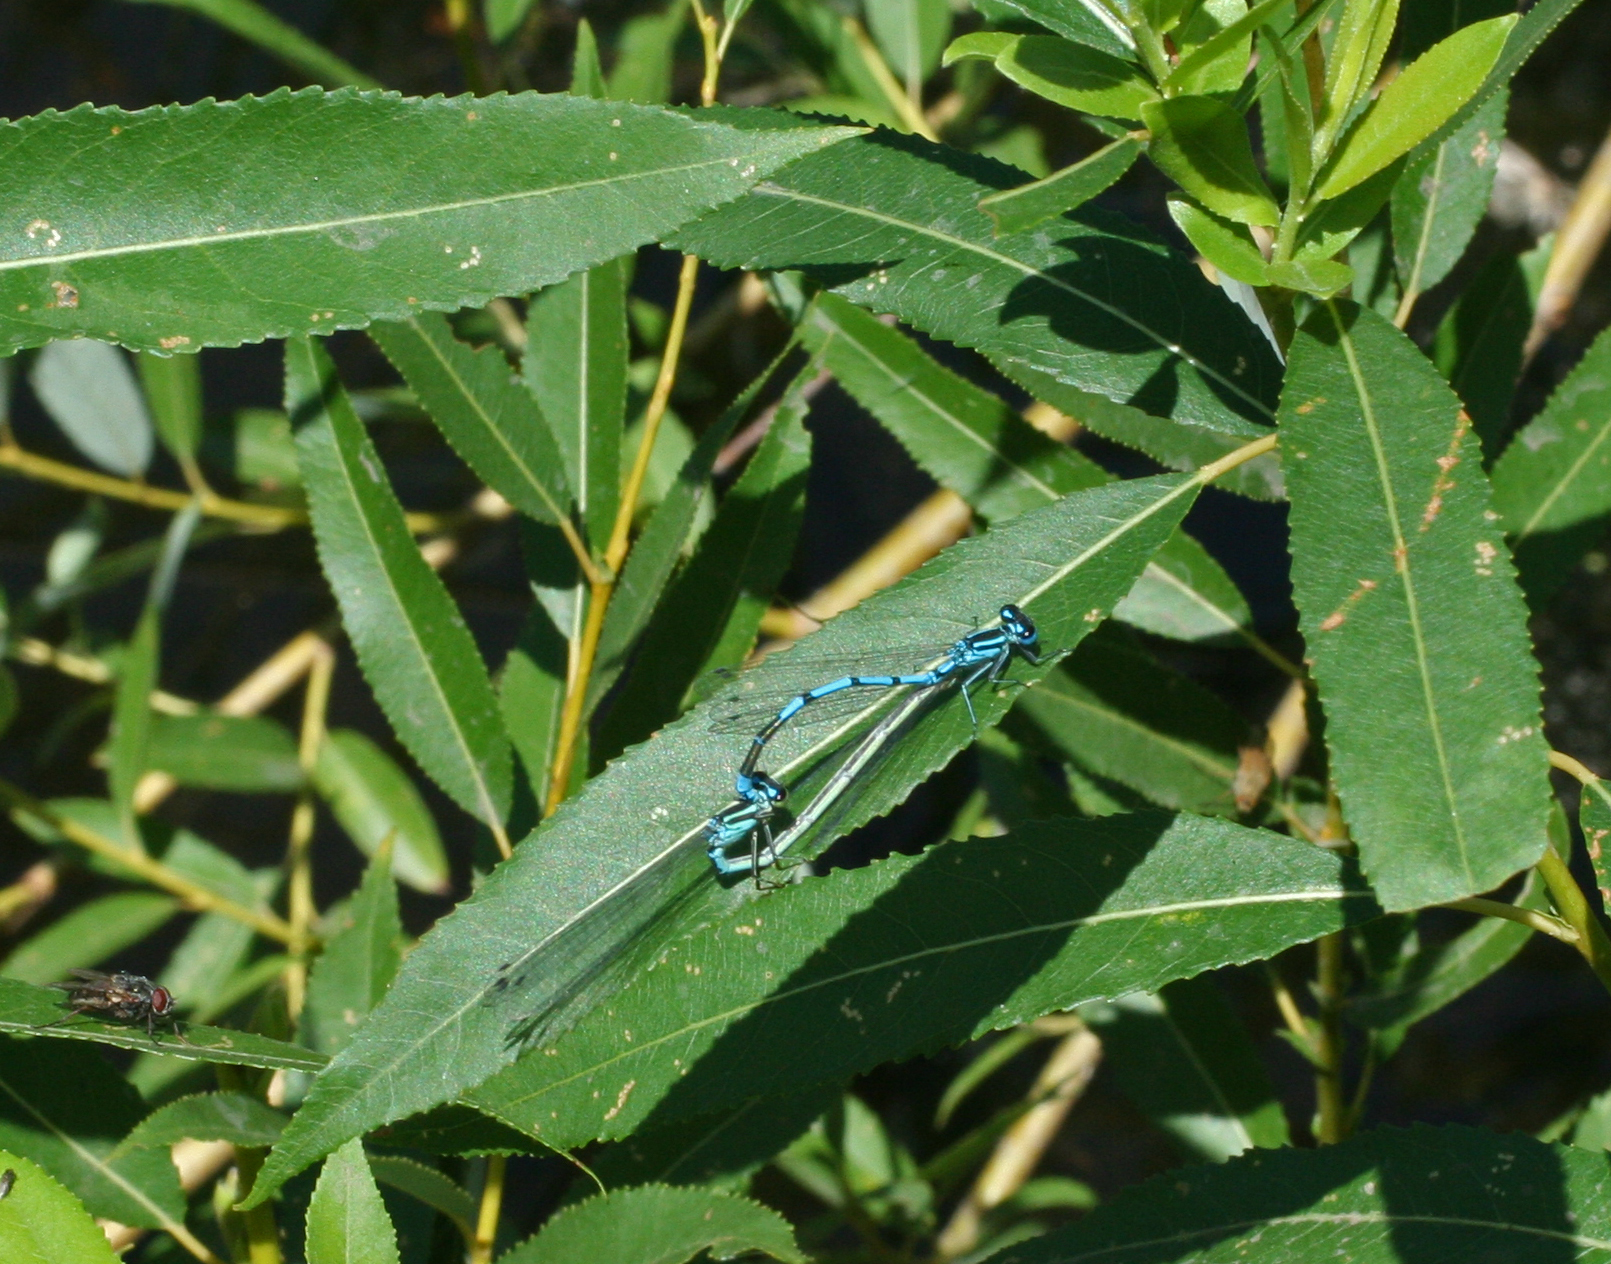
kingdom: Animalia
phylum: Arthropoda
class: Insecta
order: Odonata
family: Coenagrionidae
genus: Coenagrion
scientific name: Coenagrion puella
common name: Azure damselfly
